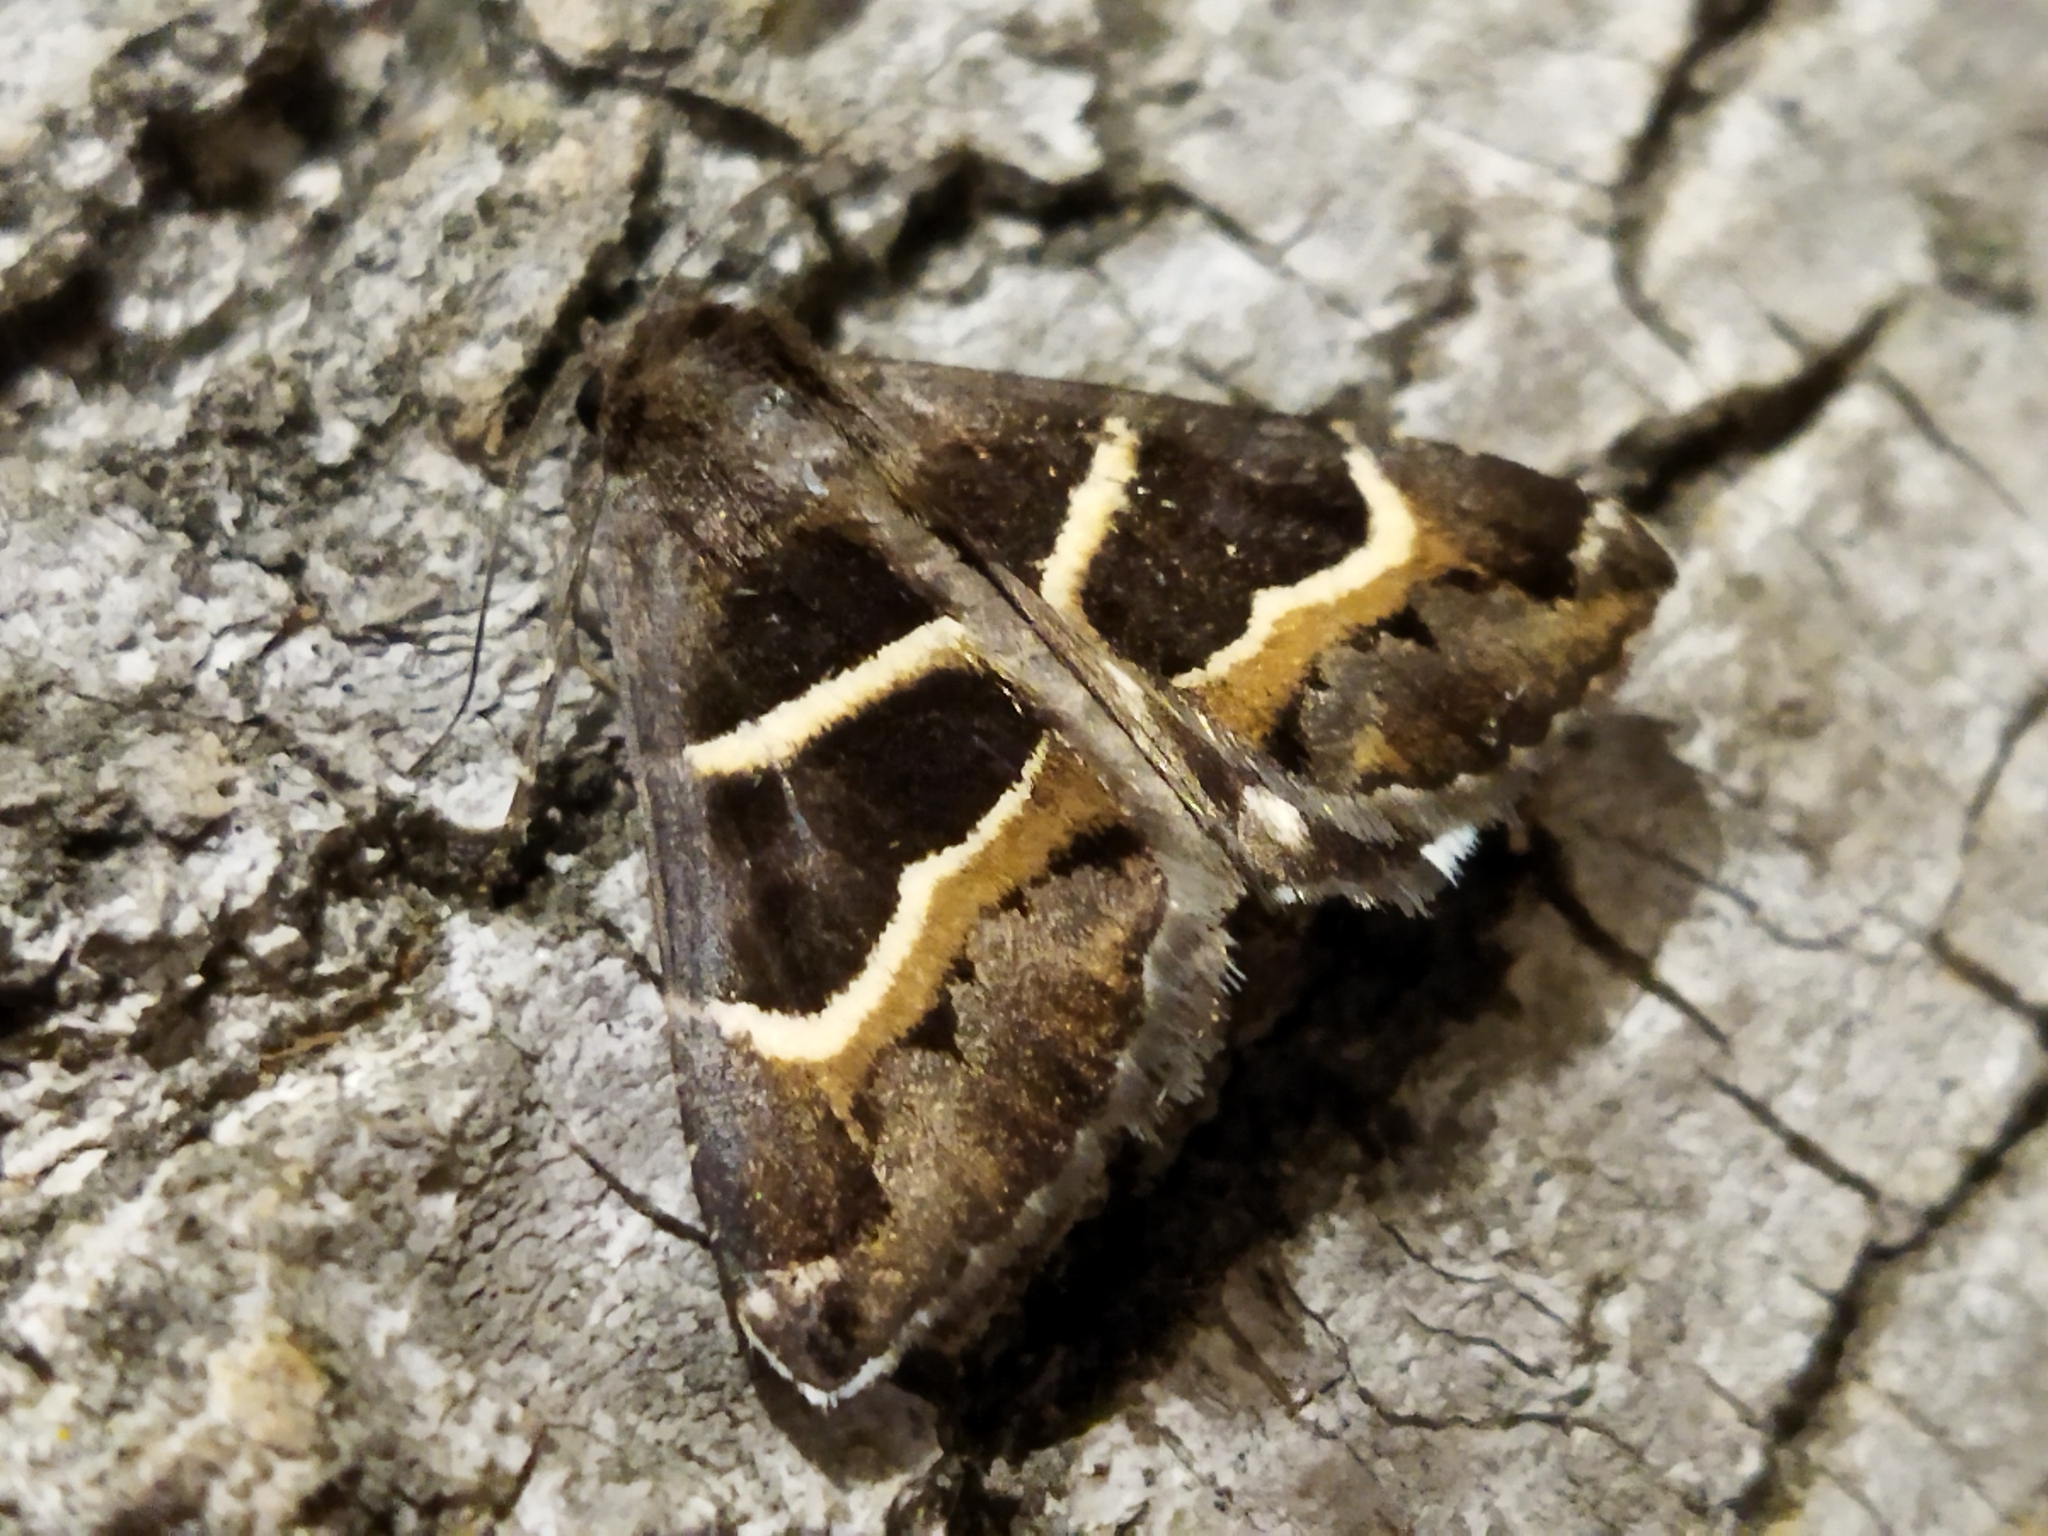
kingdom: Animalia
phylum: Arthropoda
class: Insecta
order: Lepidoptera
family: Erebidae
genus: Grammodes
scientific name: Grammodes stolida
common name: Geometrician
